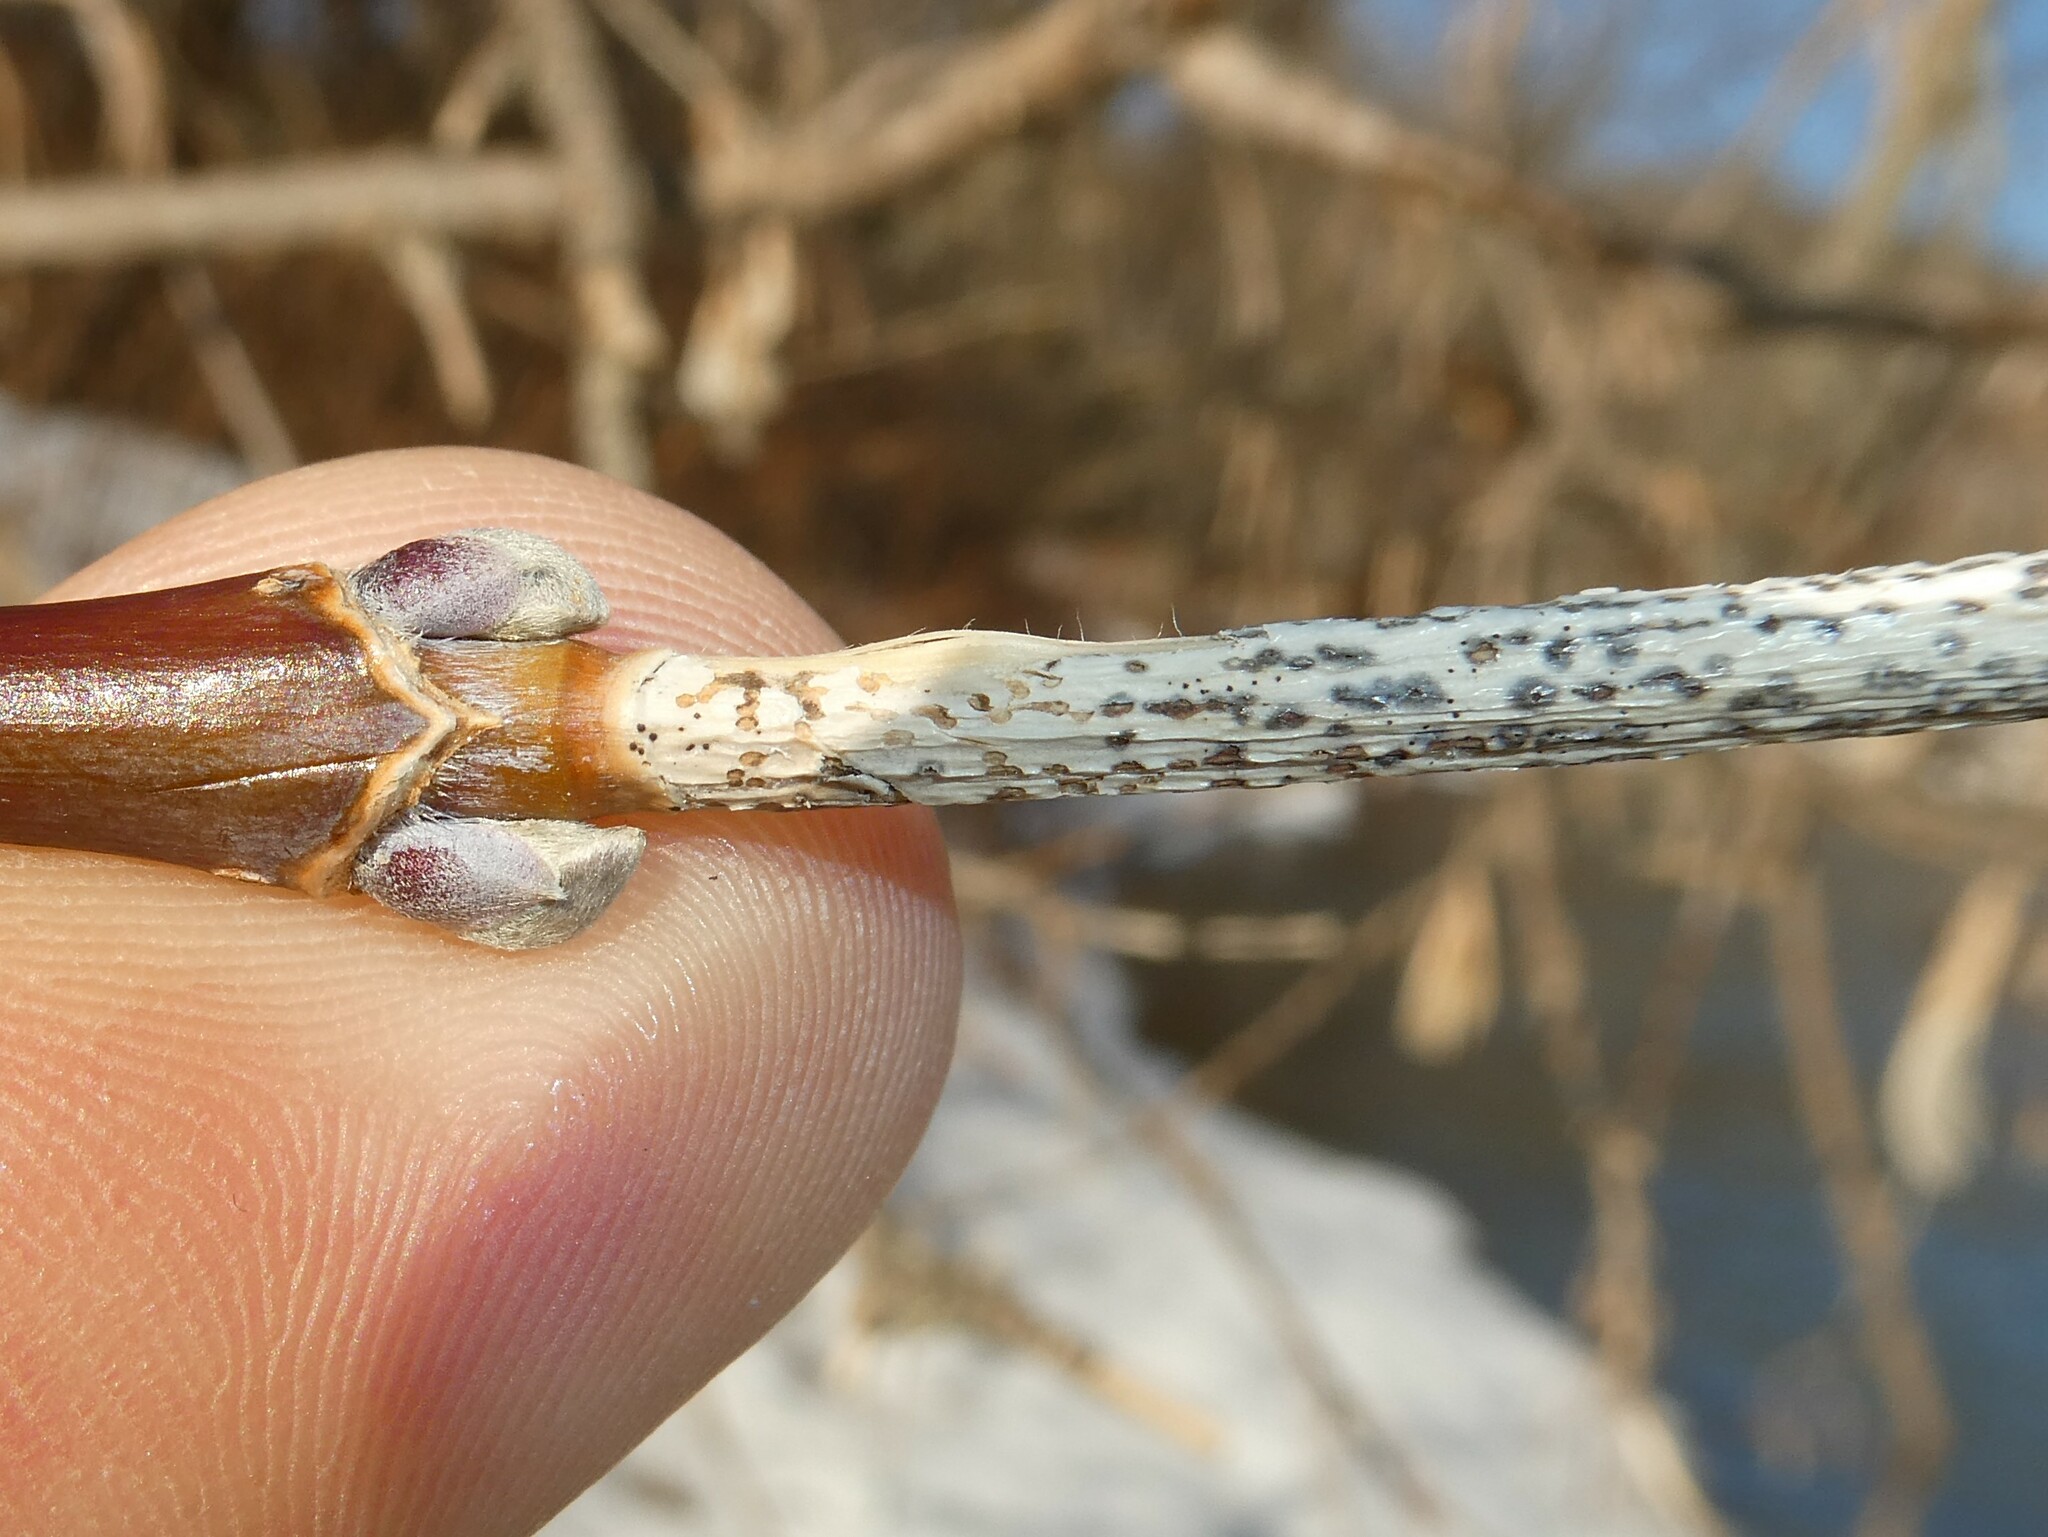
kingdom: Plantae
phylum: Tracheophyta
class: Magnoliopsida
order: Sapindales
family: Sapindaceae
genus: Acer
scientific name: Acer negundo
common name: Ashleaf maple
